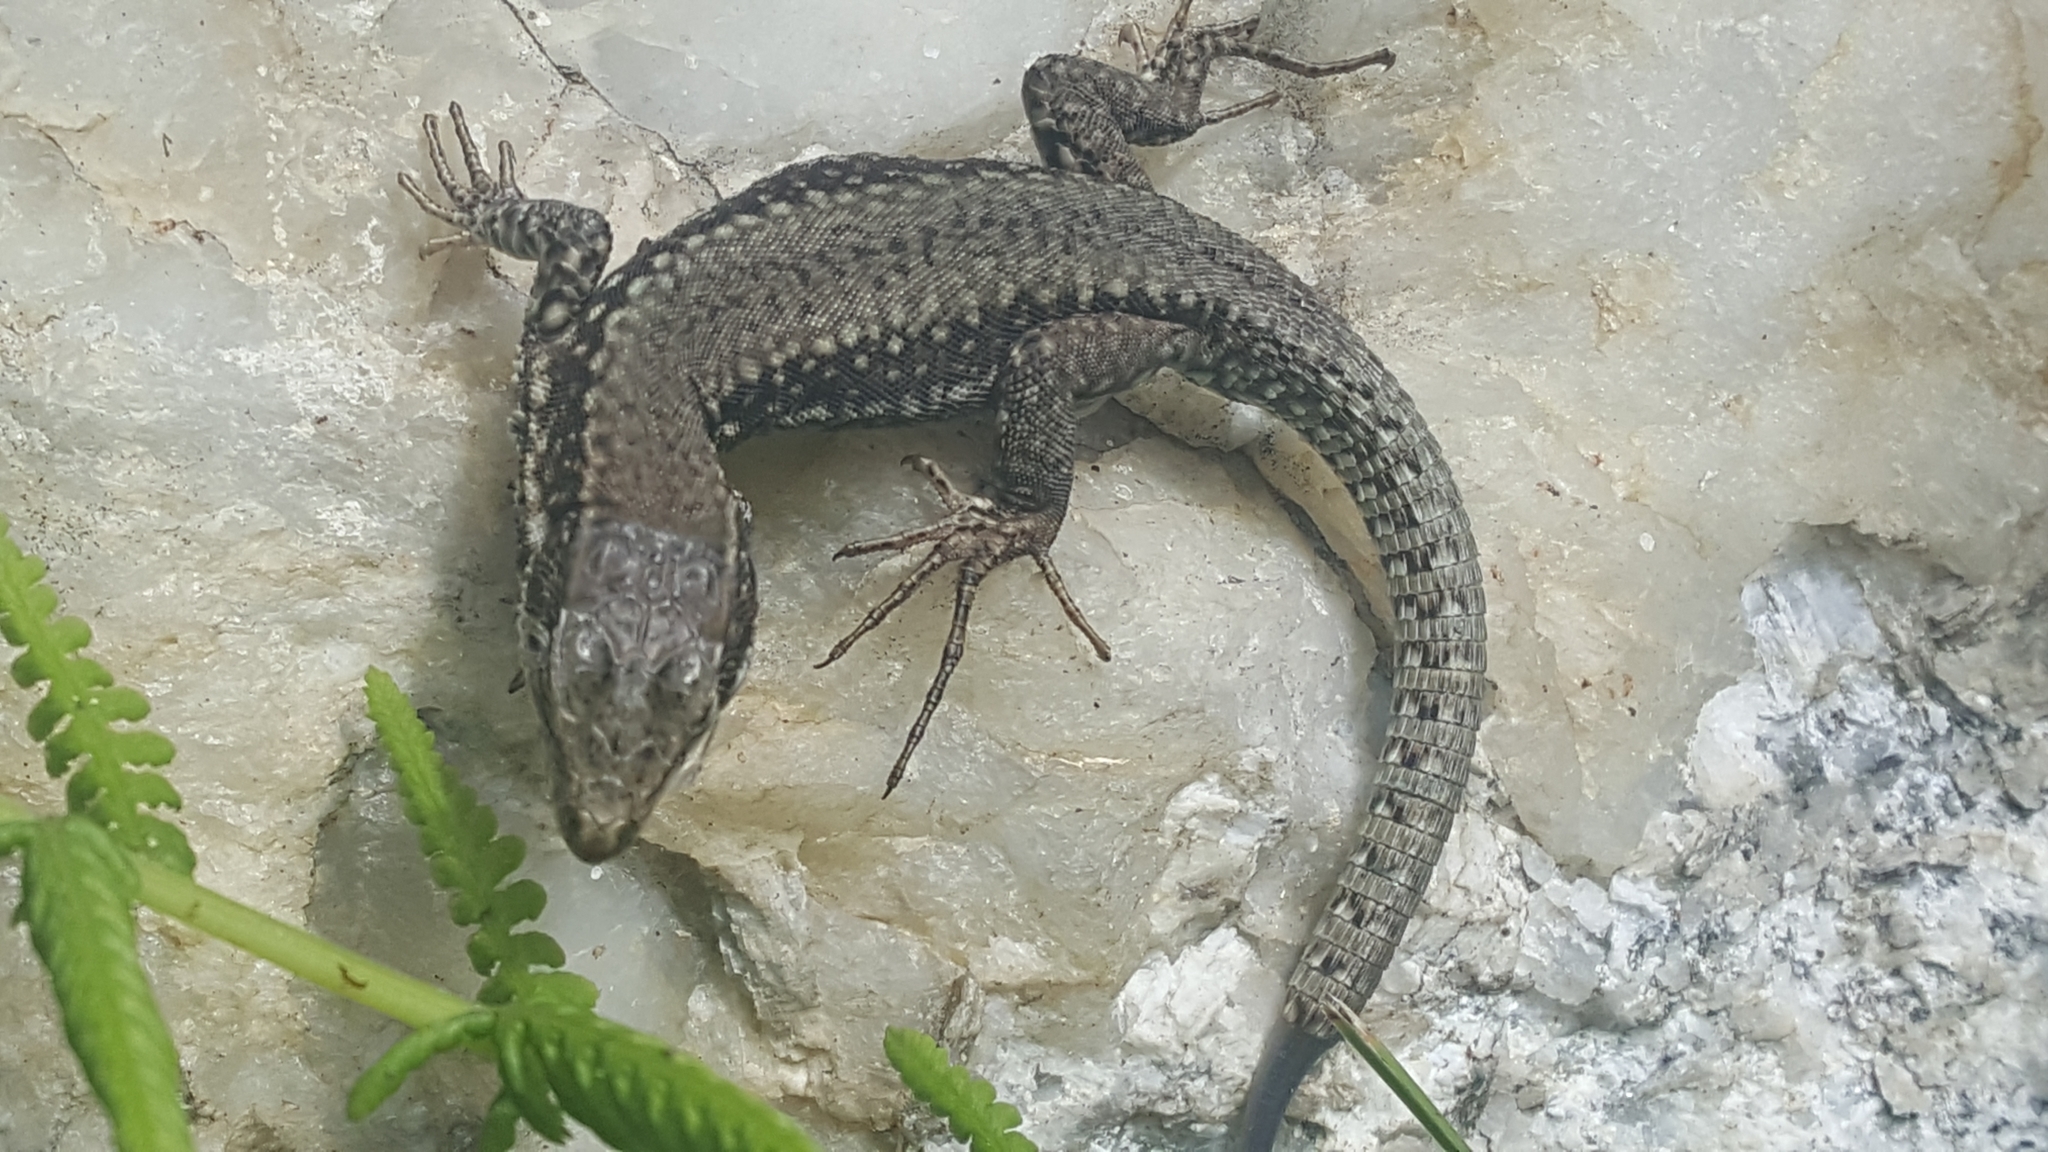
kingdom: Animalia
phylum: Chordata
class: Squamata
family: Lacertidae
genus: Podarcis
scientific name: Podarcis muralis
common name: Common wall lizard
